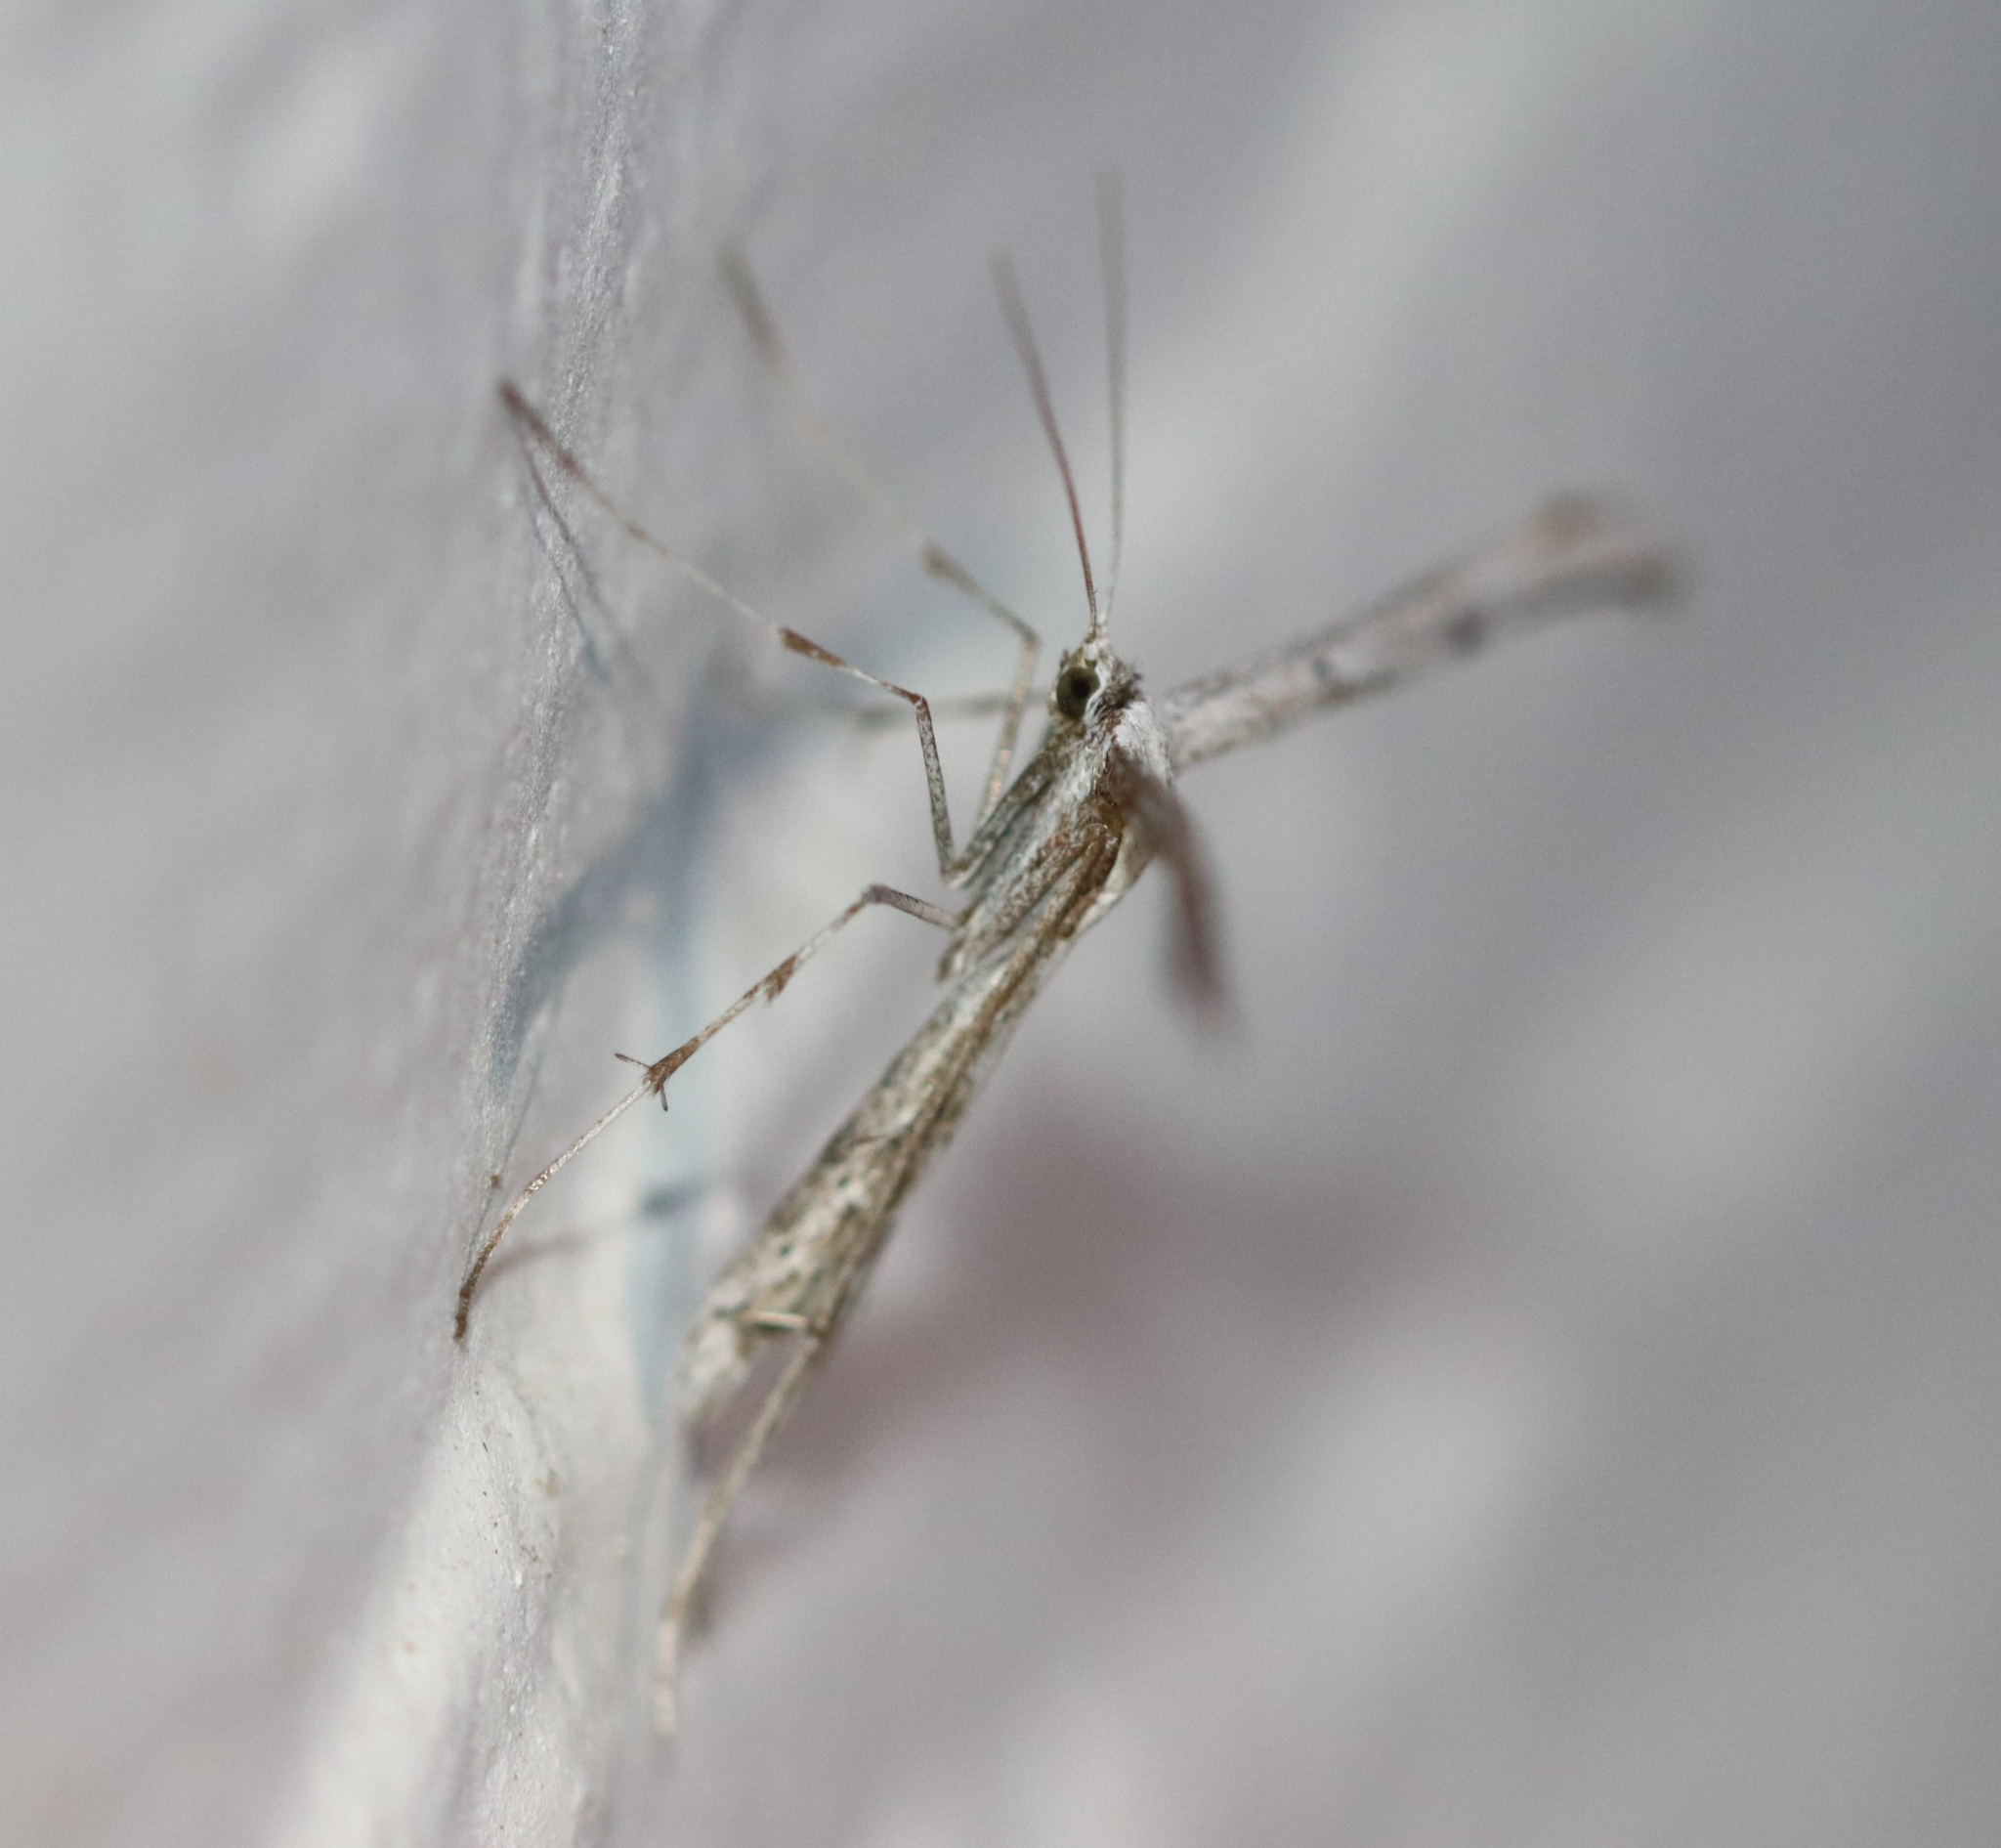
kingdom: Animalia
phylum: Arthropoda
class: Insecta
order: Lepidoptera
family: Pterophoridae
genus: Emmelina
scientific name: Emmelina monodactyla
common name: Common plume
